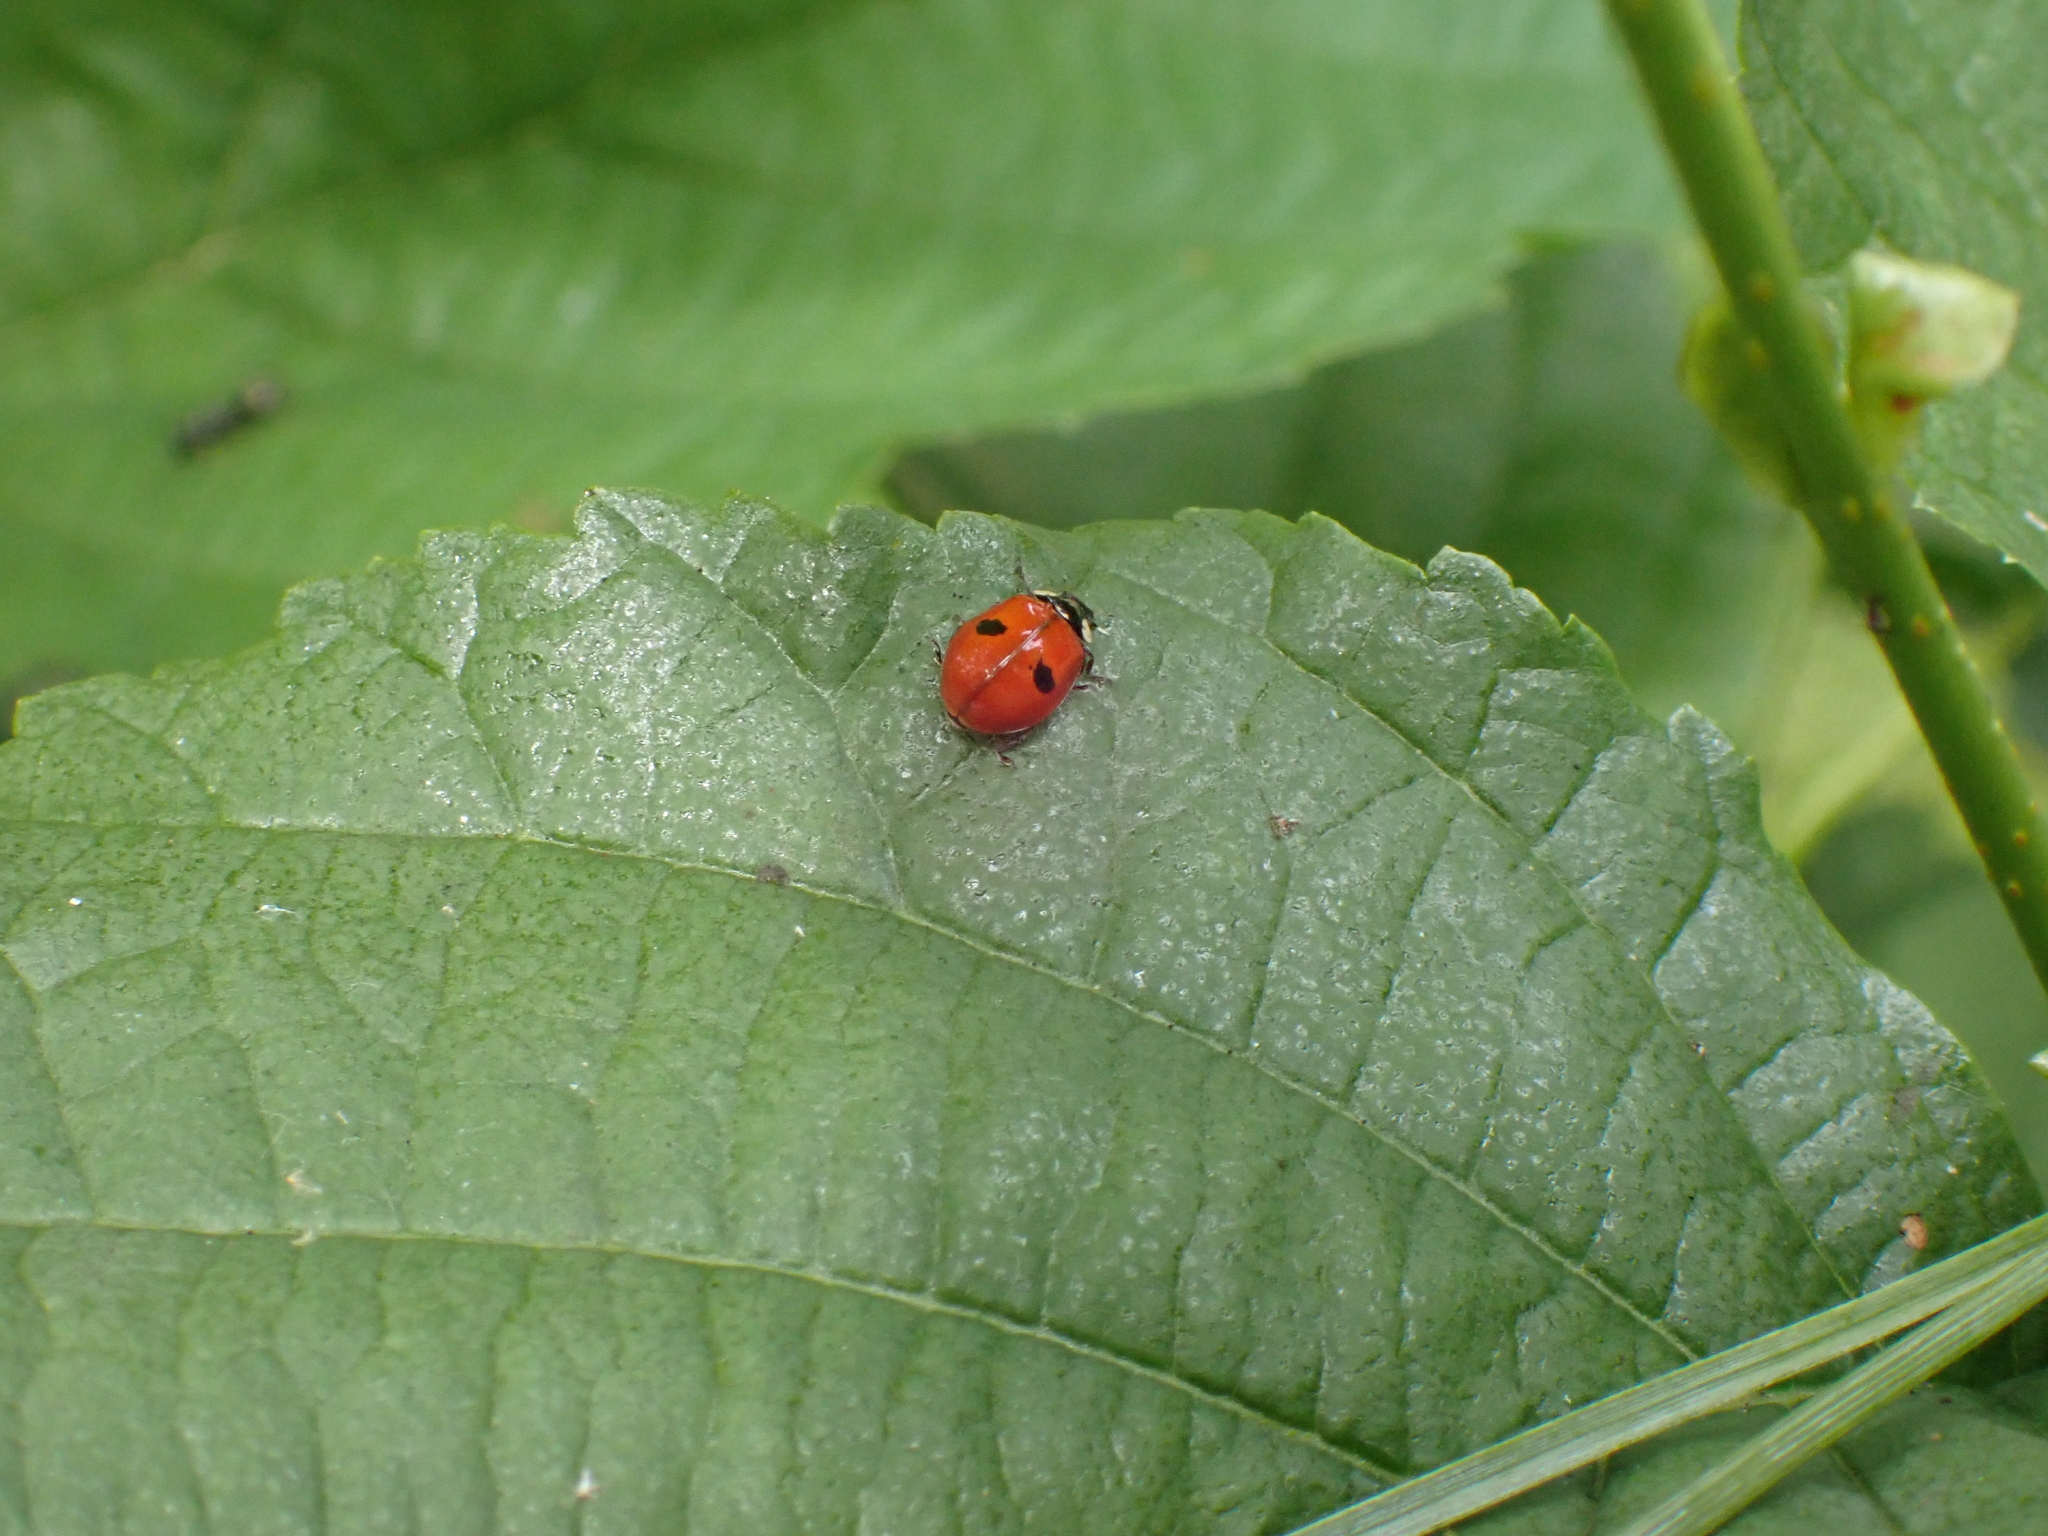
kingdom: Animalia
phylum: Arthropoda
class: Insecta
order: Coleoptera
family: Coccinellidae
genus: Adalia
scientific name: Adalia bipunctata
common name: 2-spot ladybird
